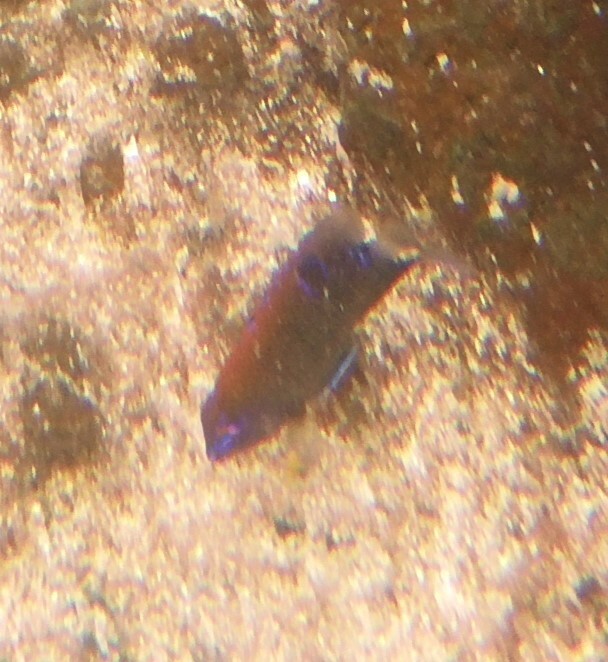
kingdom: Animalia
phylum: Chordata
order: Perciformes
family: Pomacentridae
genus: Stegastes
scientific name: Stegastes beebei
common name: Galapagos ringtail damselfish
